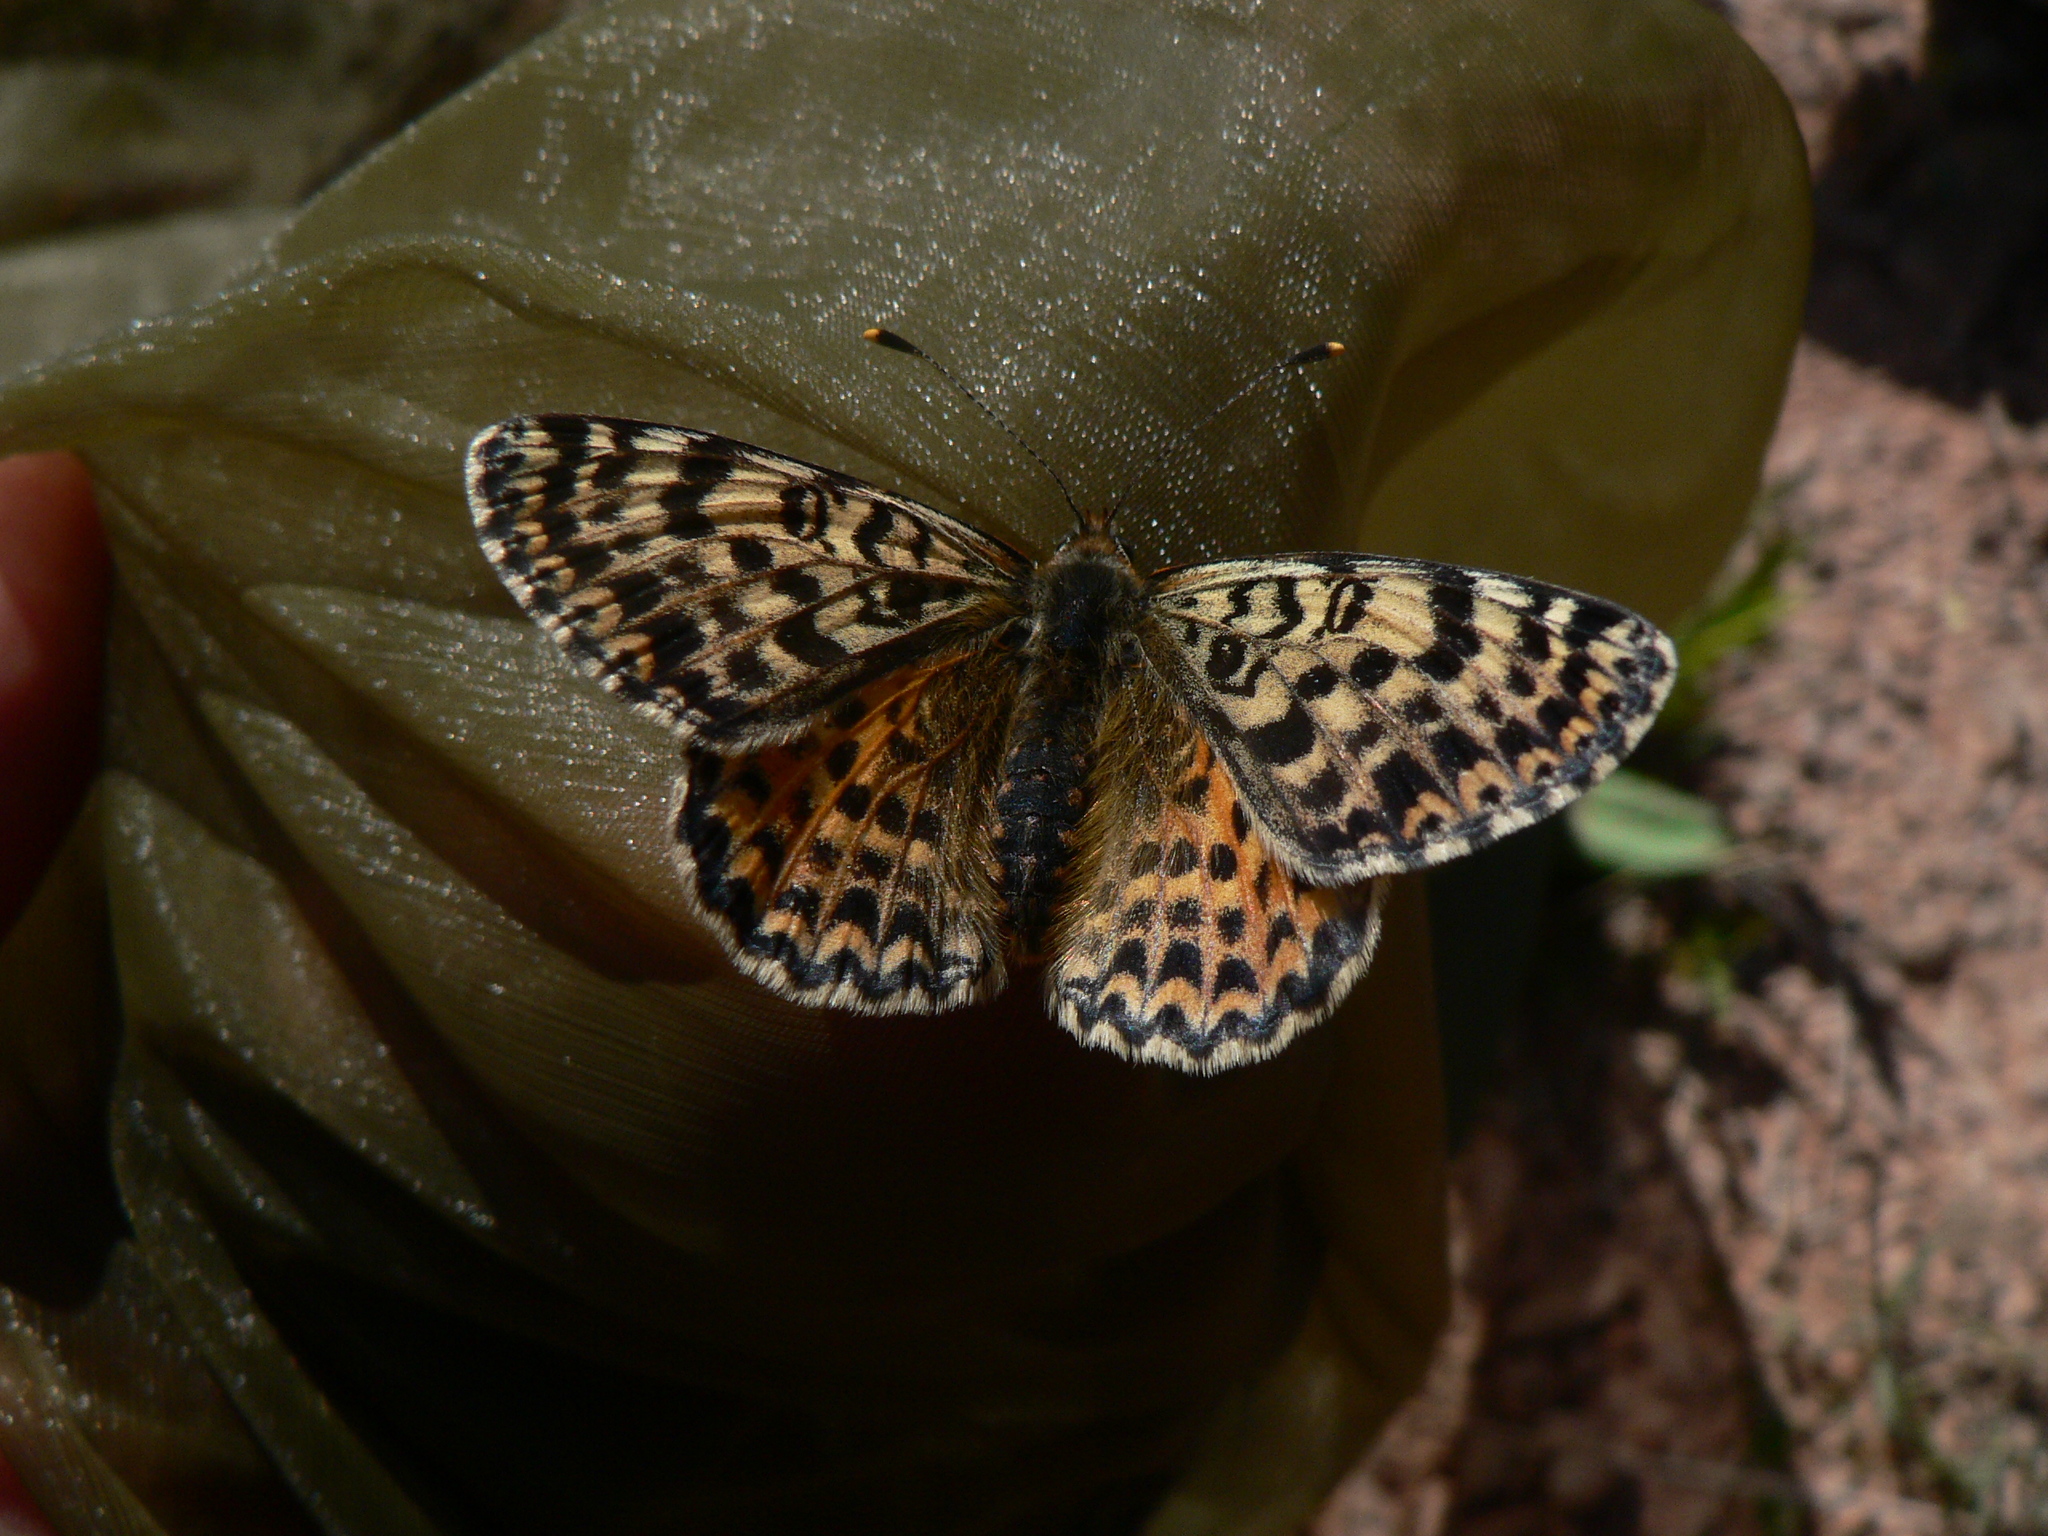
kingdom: Animalia
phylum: Arthropoda
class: Insecta
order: Lepidoptera
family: Nymphalidae
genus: Melitaea
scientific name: Melitaea didyma
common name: Spotted fritillary
